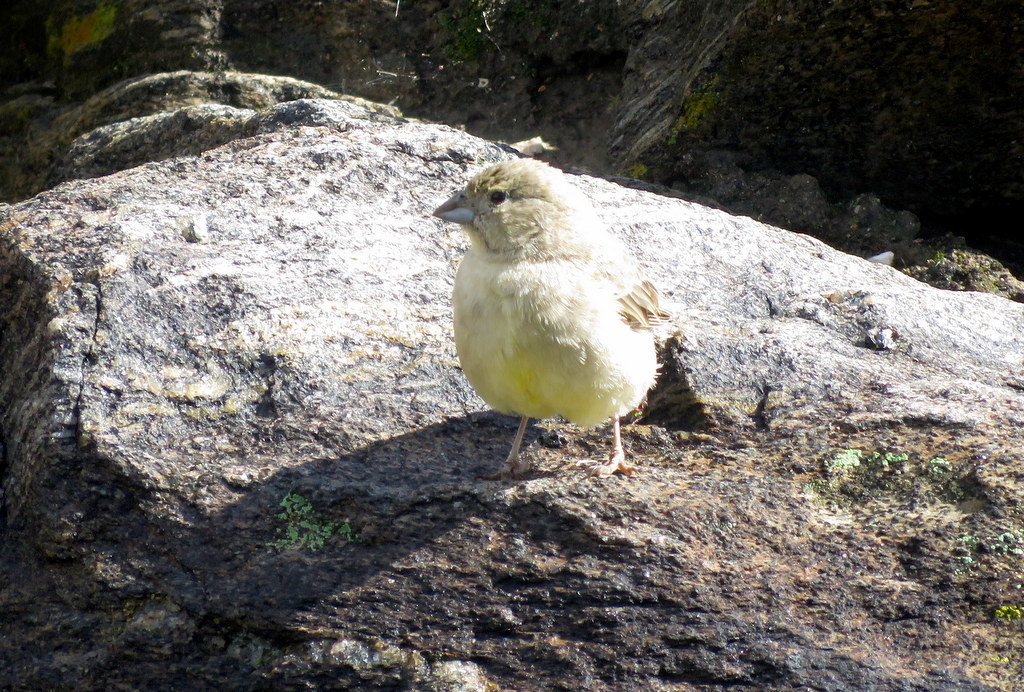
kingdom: Animalia
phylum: Chordata
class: Aves
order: Passeriformes
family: Thraupidae
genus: Sicalis
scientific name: Sicalis olivascens
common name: Greenish yellow finch
